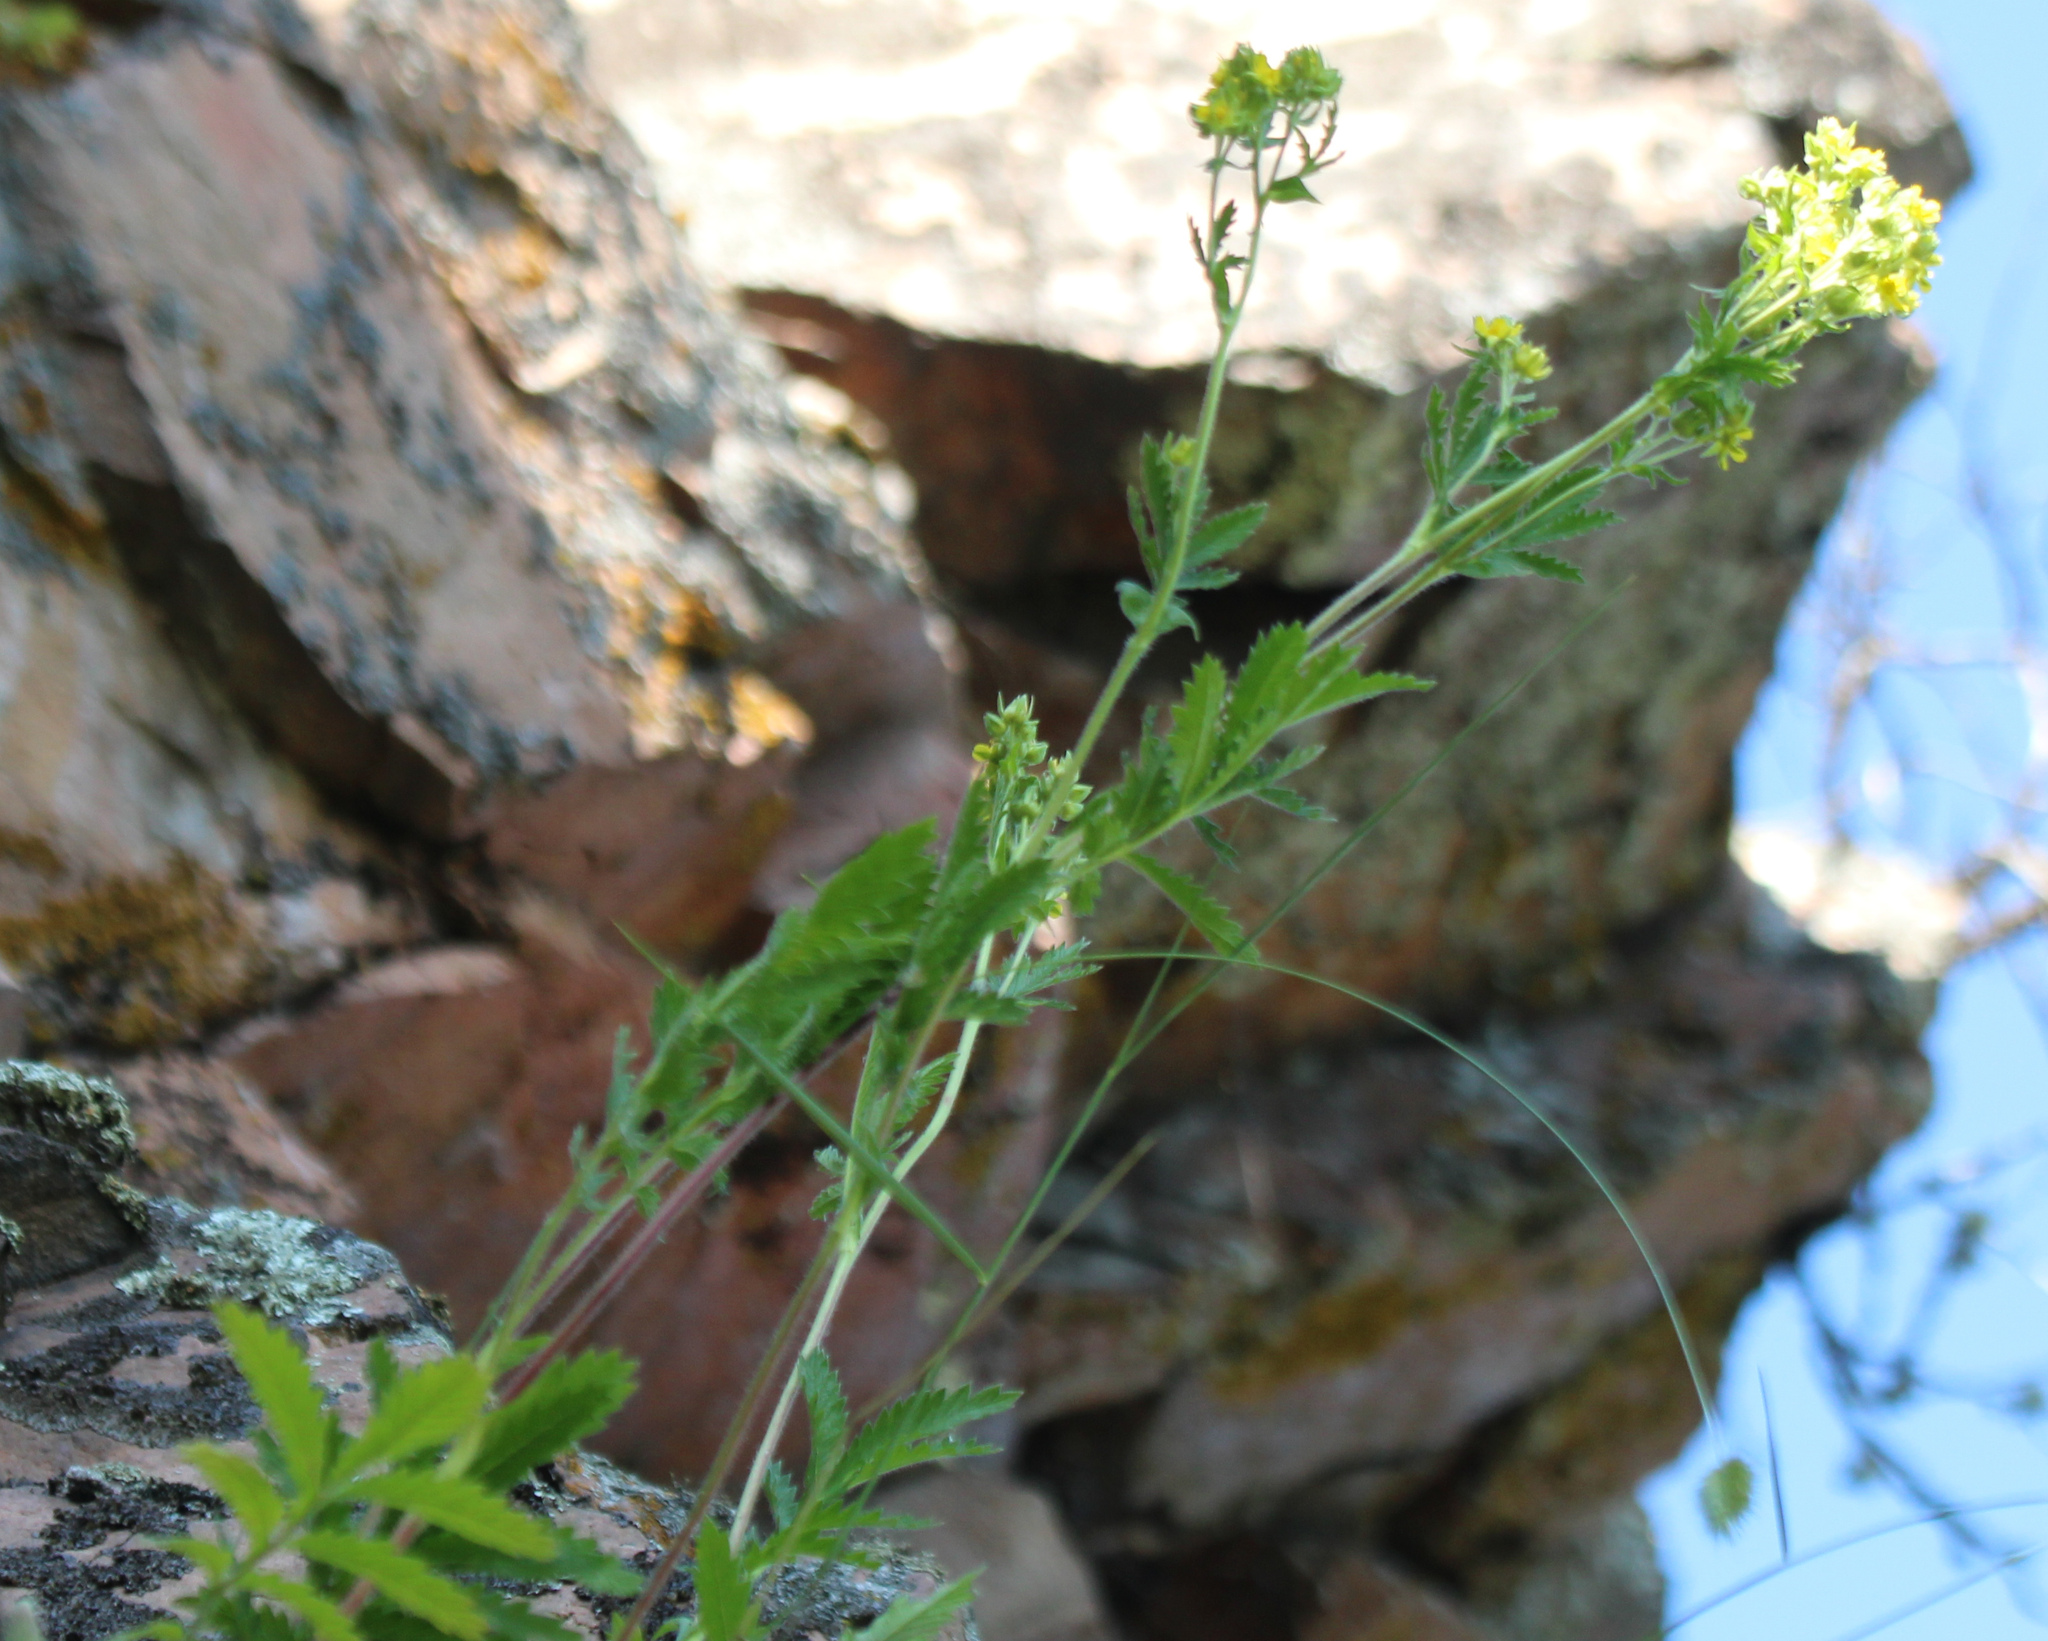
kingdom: Plantae
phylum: Tracheophyta
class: Magnoliopsida
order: Rosales
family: Rosaceae
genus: Potentilla
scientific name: Potentilla longifolia
